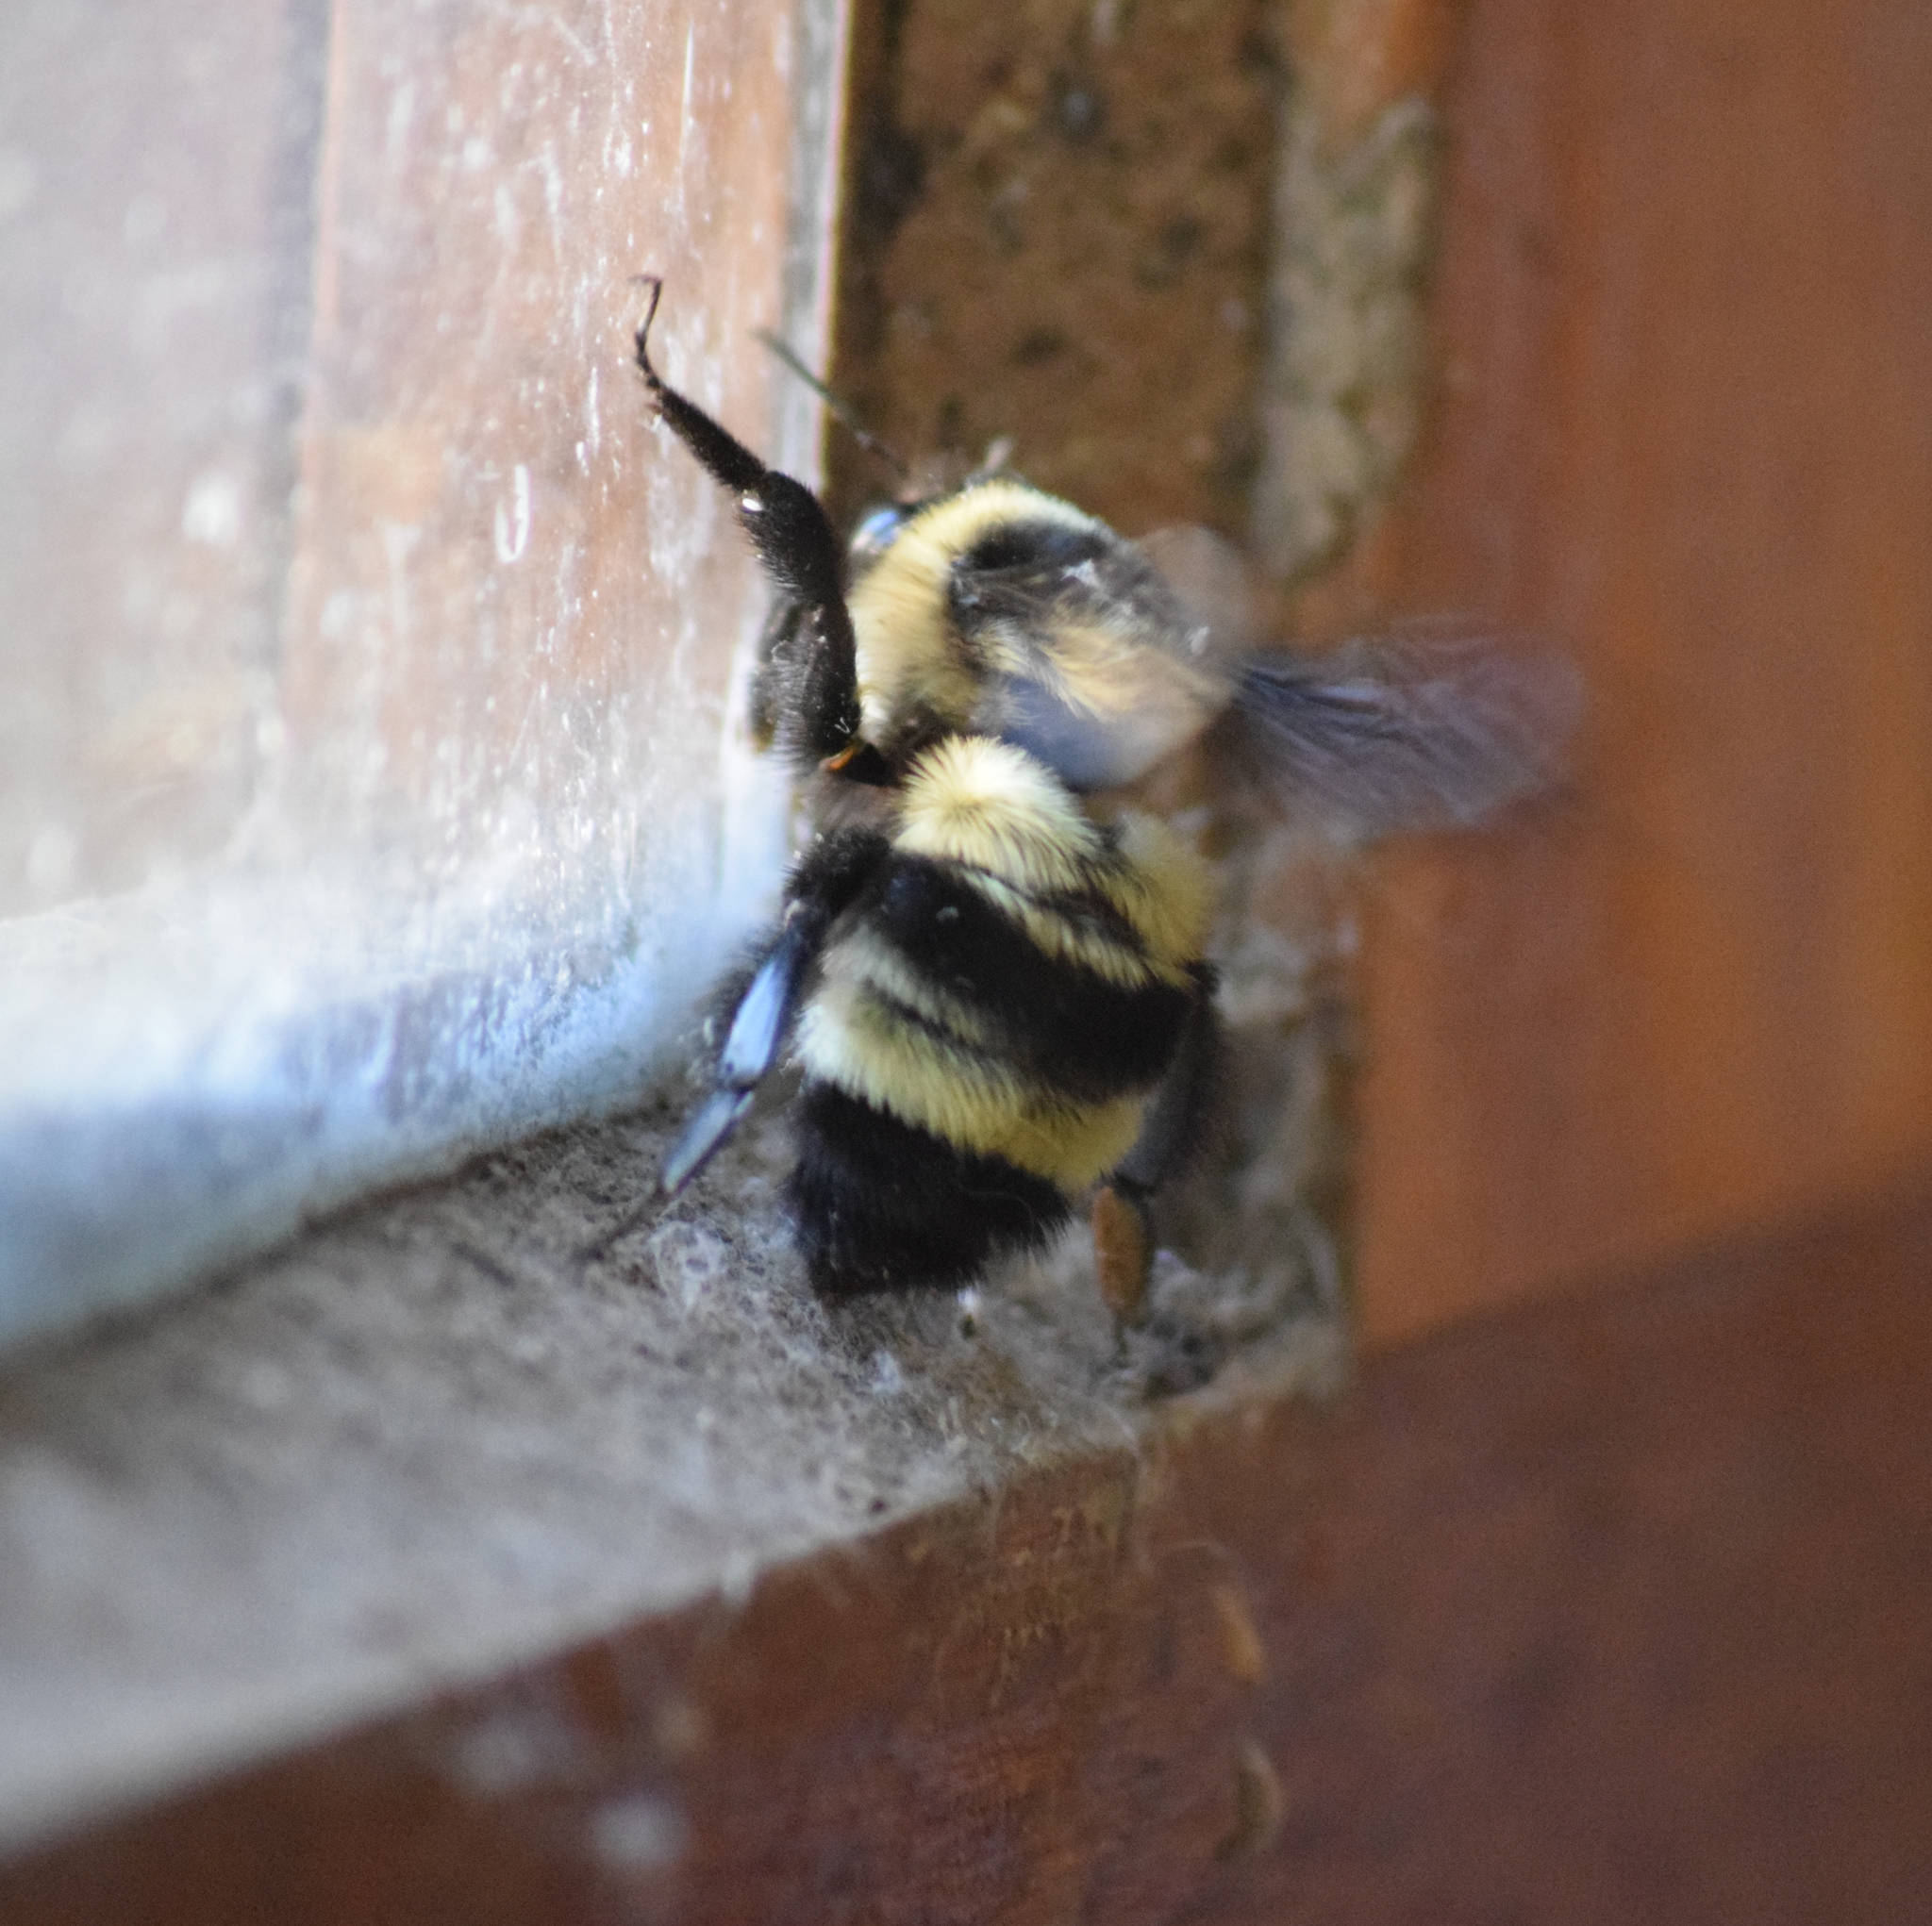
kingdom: Animalia
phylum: Arthropoda
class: Insecta
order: Hymenoptera
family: Apidae
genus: Bombus
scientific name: Bombus brasiliensis
